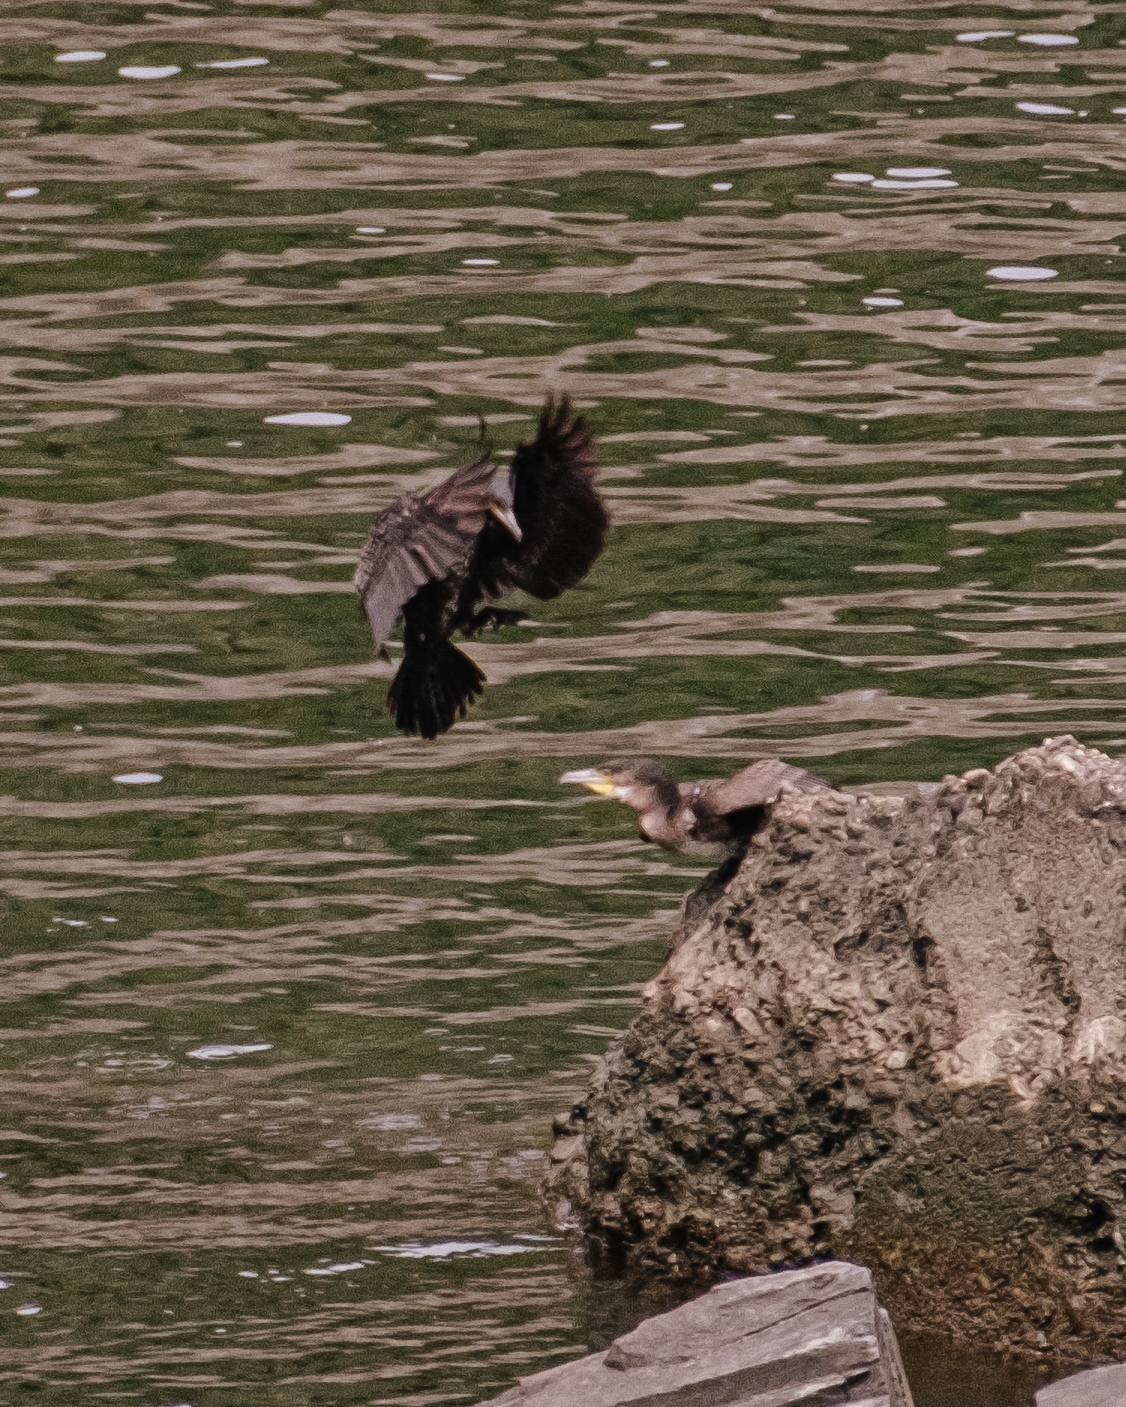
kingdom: Animalia
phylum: Chordata
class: Aves
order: Suliformes
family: Phalacrocoracidae
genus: Phalacrocorax
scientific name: Phalacrocorax carbo
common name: Great cormorant
